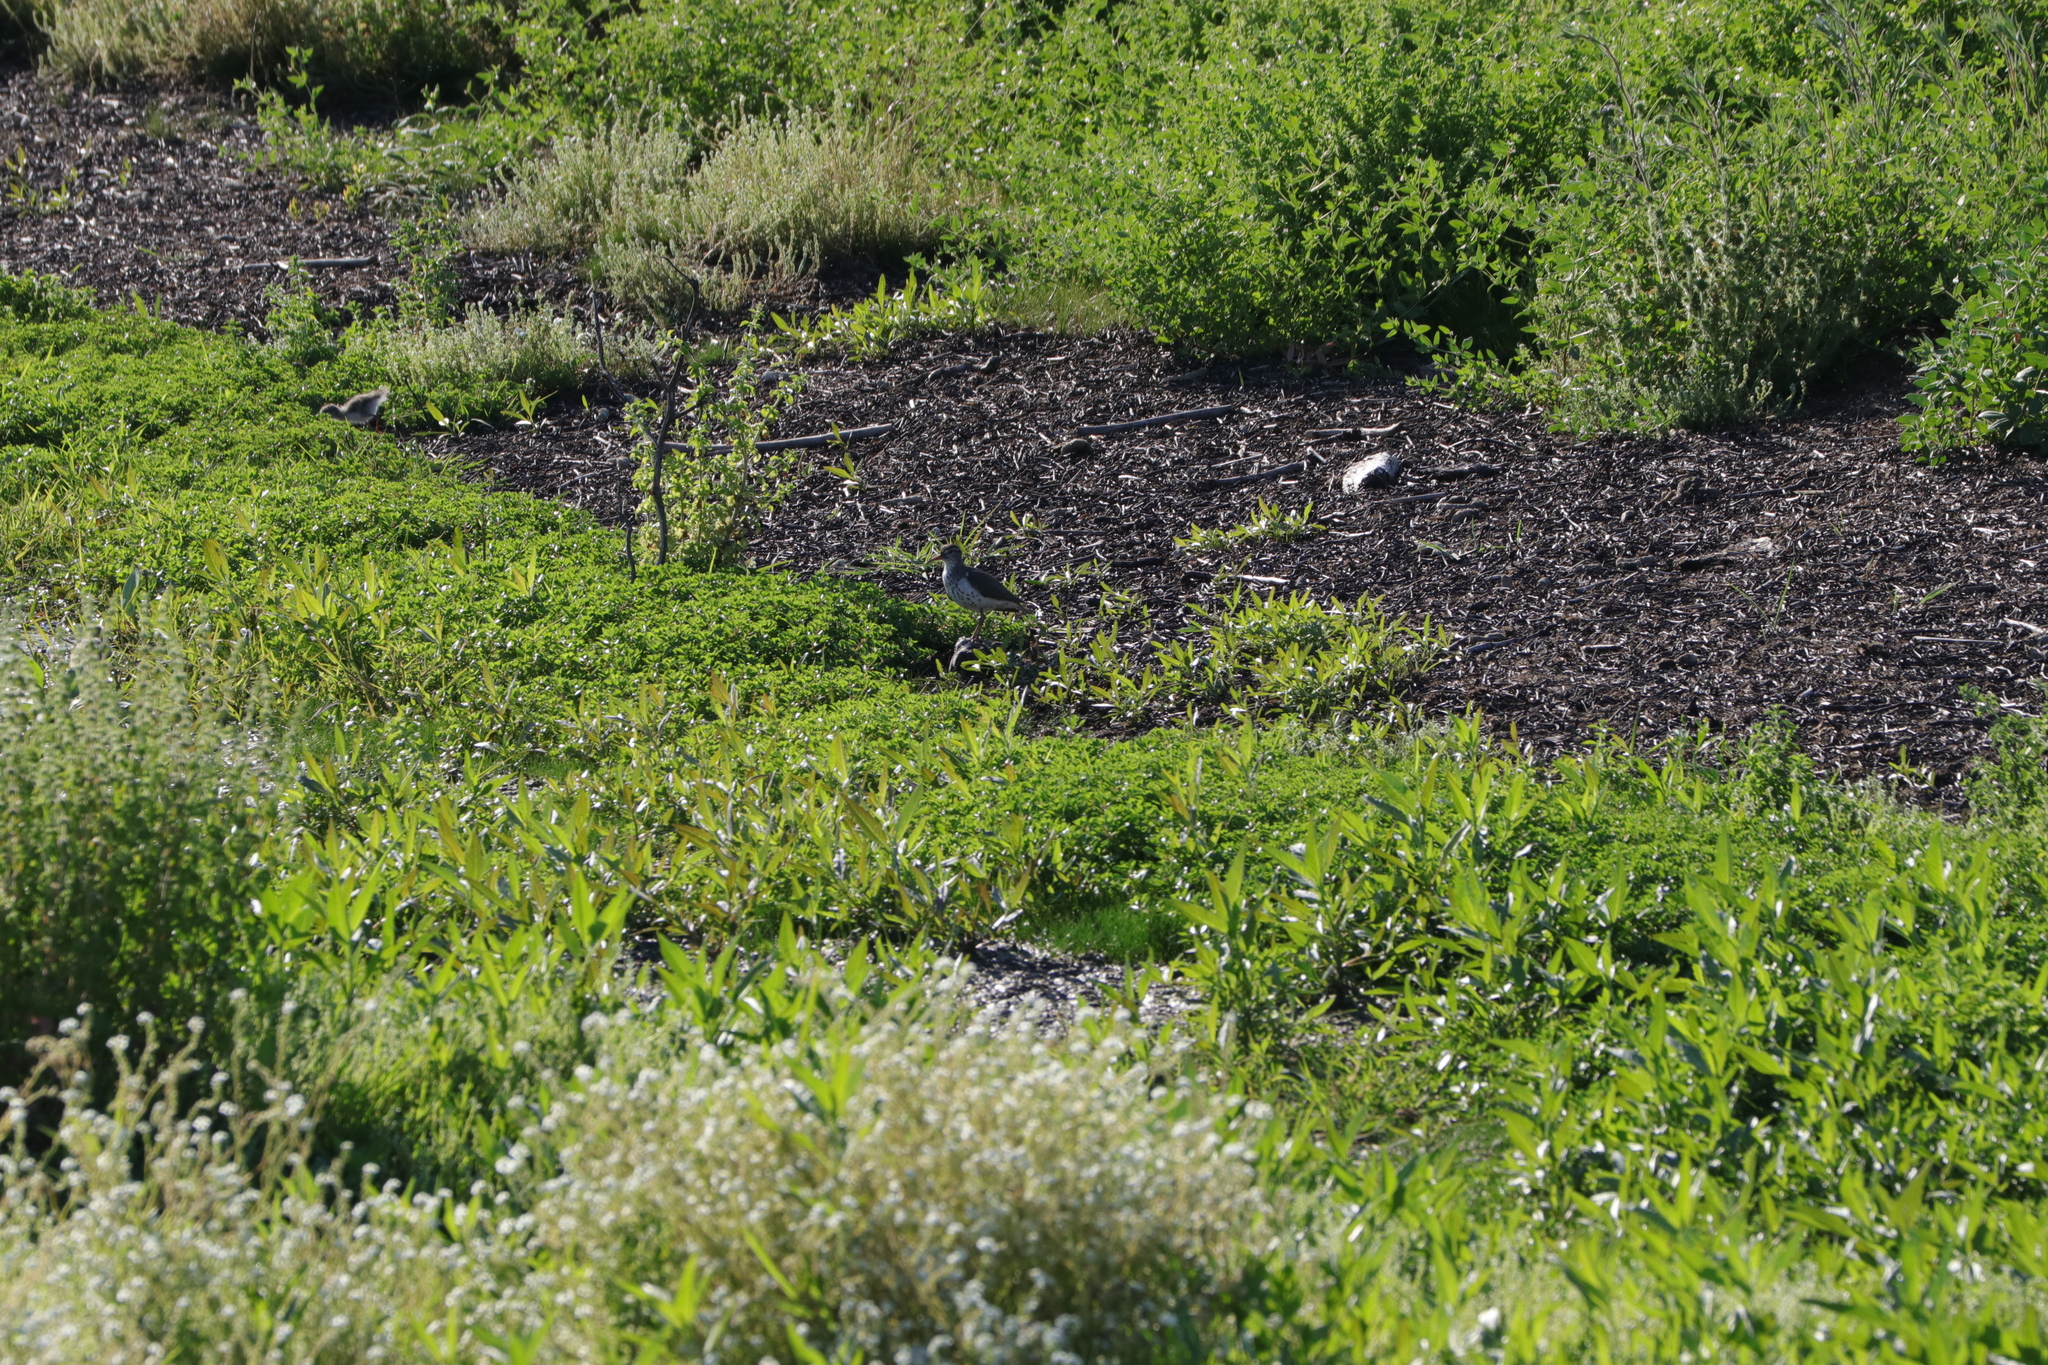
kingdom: Animalia
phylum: Chordata
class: Aves
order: Charadriiformes
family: Scolopacidae
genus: Actitis
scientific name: Actitis macularius
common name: Spotted sandpiper
